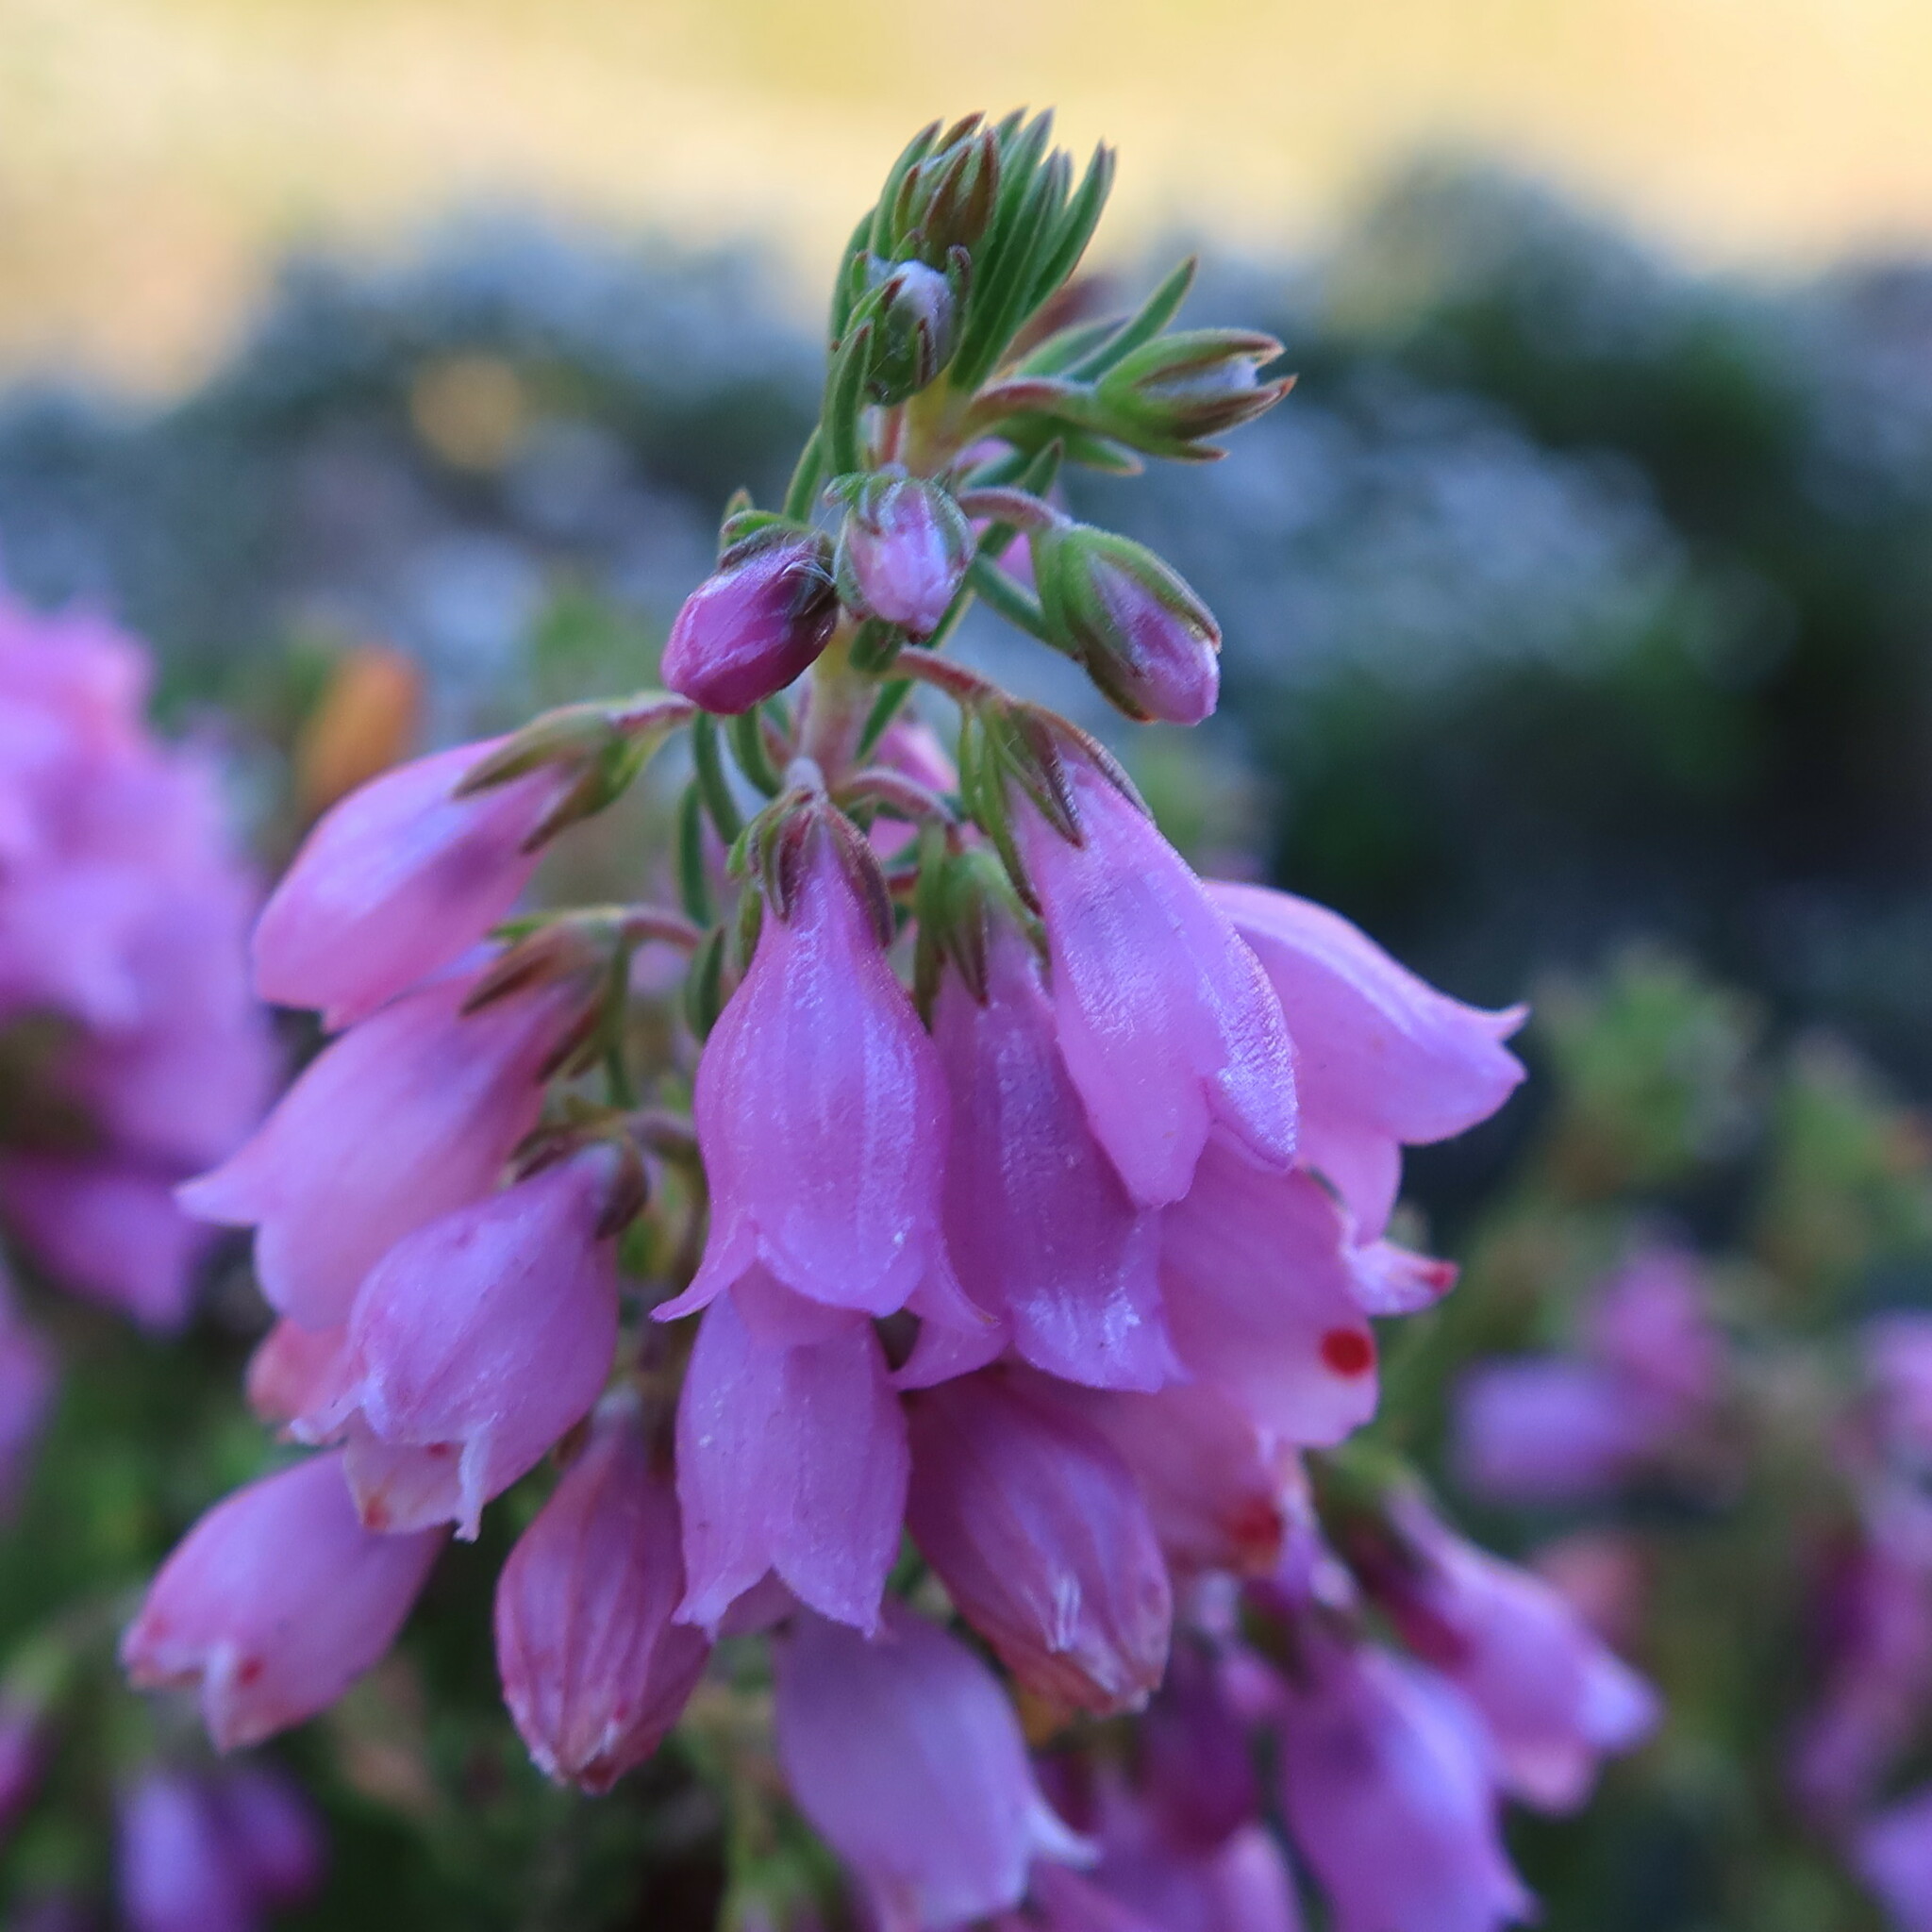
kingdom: Plantae
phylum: Tracheophyta
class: Magnoliopsida
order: Ericales
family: Ericaceae
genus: Erica
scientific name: Erica viscaria
